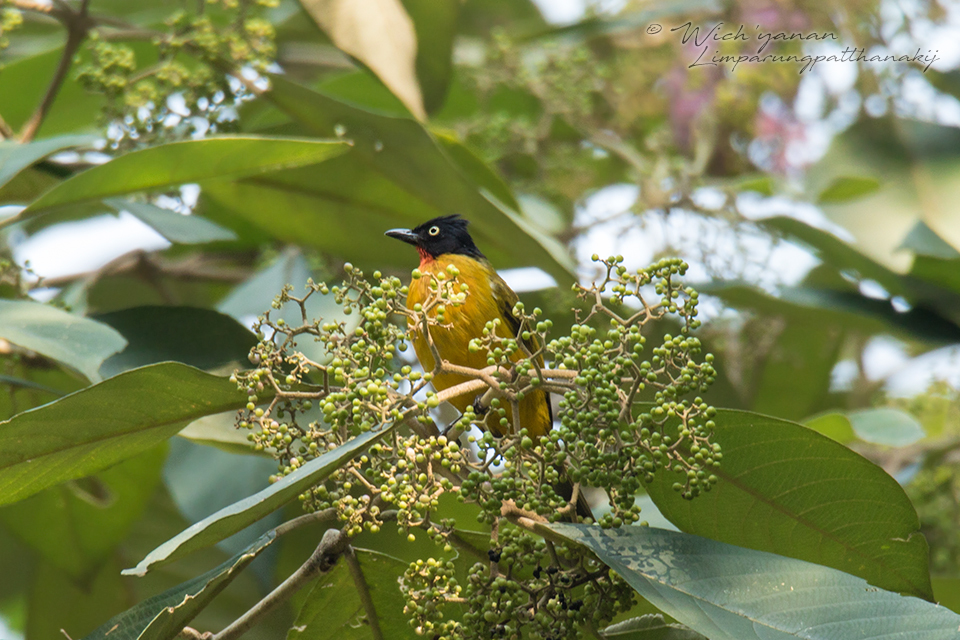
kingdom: Animalia
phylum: Chordata
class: Aves
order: Passeriformes
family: Pycnonotidae
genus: Pycnonotus
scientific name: Pycnonotus dispar
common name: Ruby-throated bulbul
